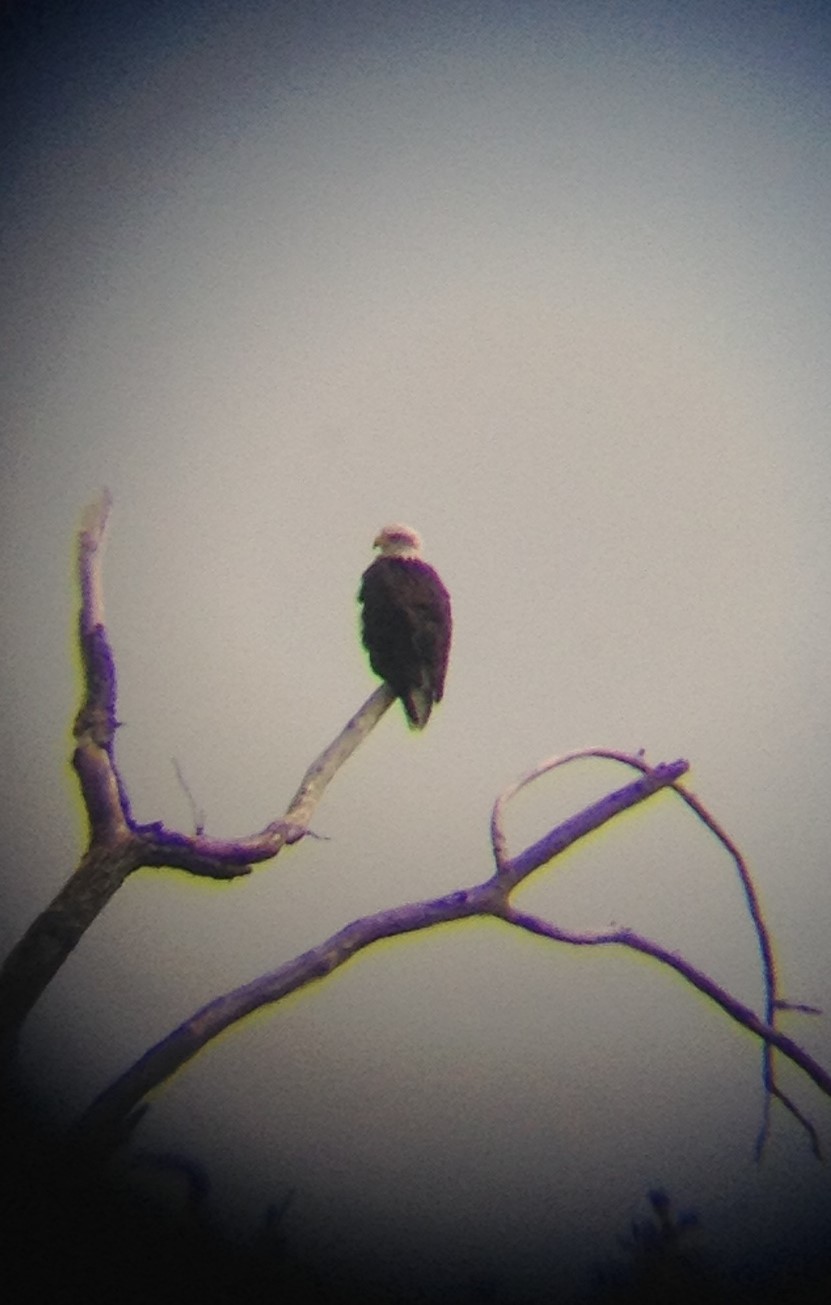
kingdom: Animalia
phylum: Chordata
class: Aves
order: Accipitriformes
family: Accipitridae
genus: Haliaeetus
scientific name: Haliaeetus leucocephalus
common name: Bald eagle
